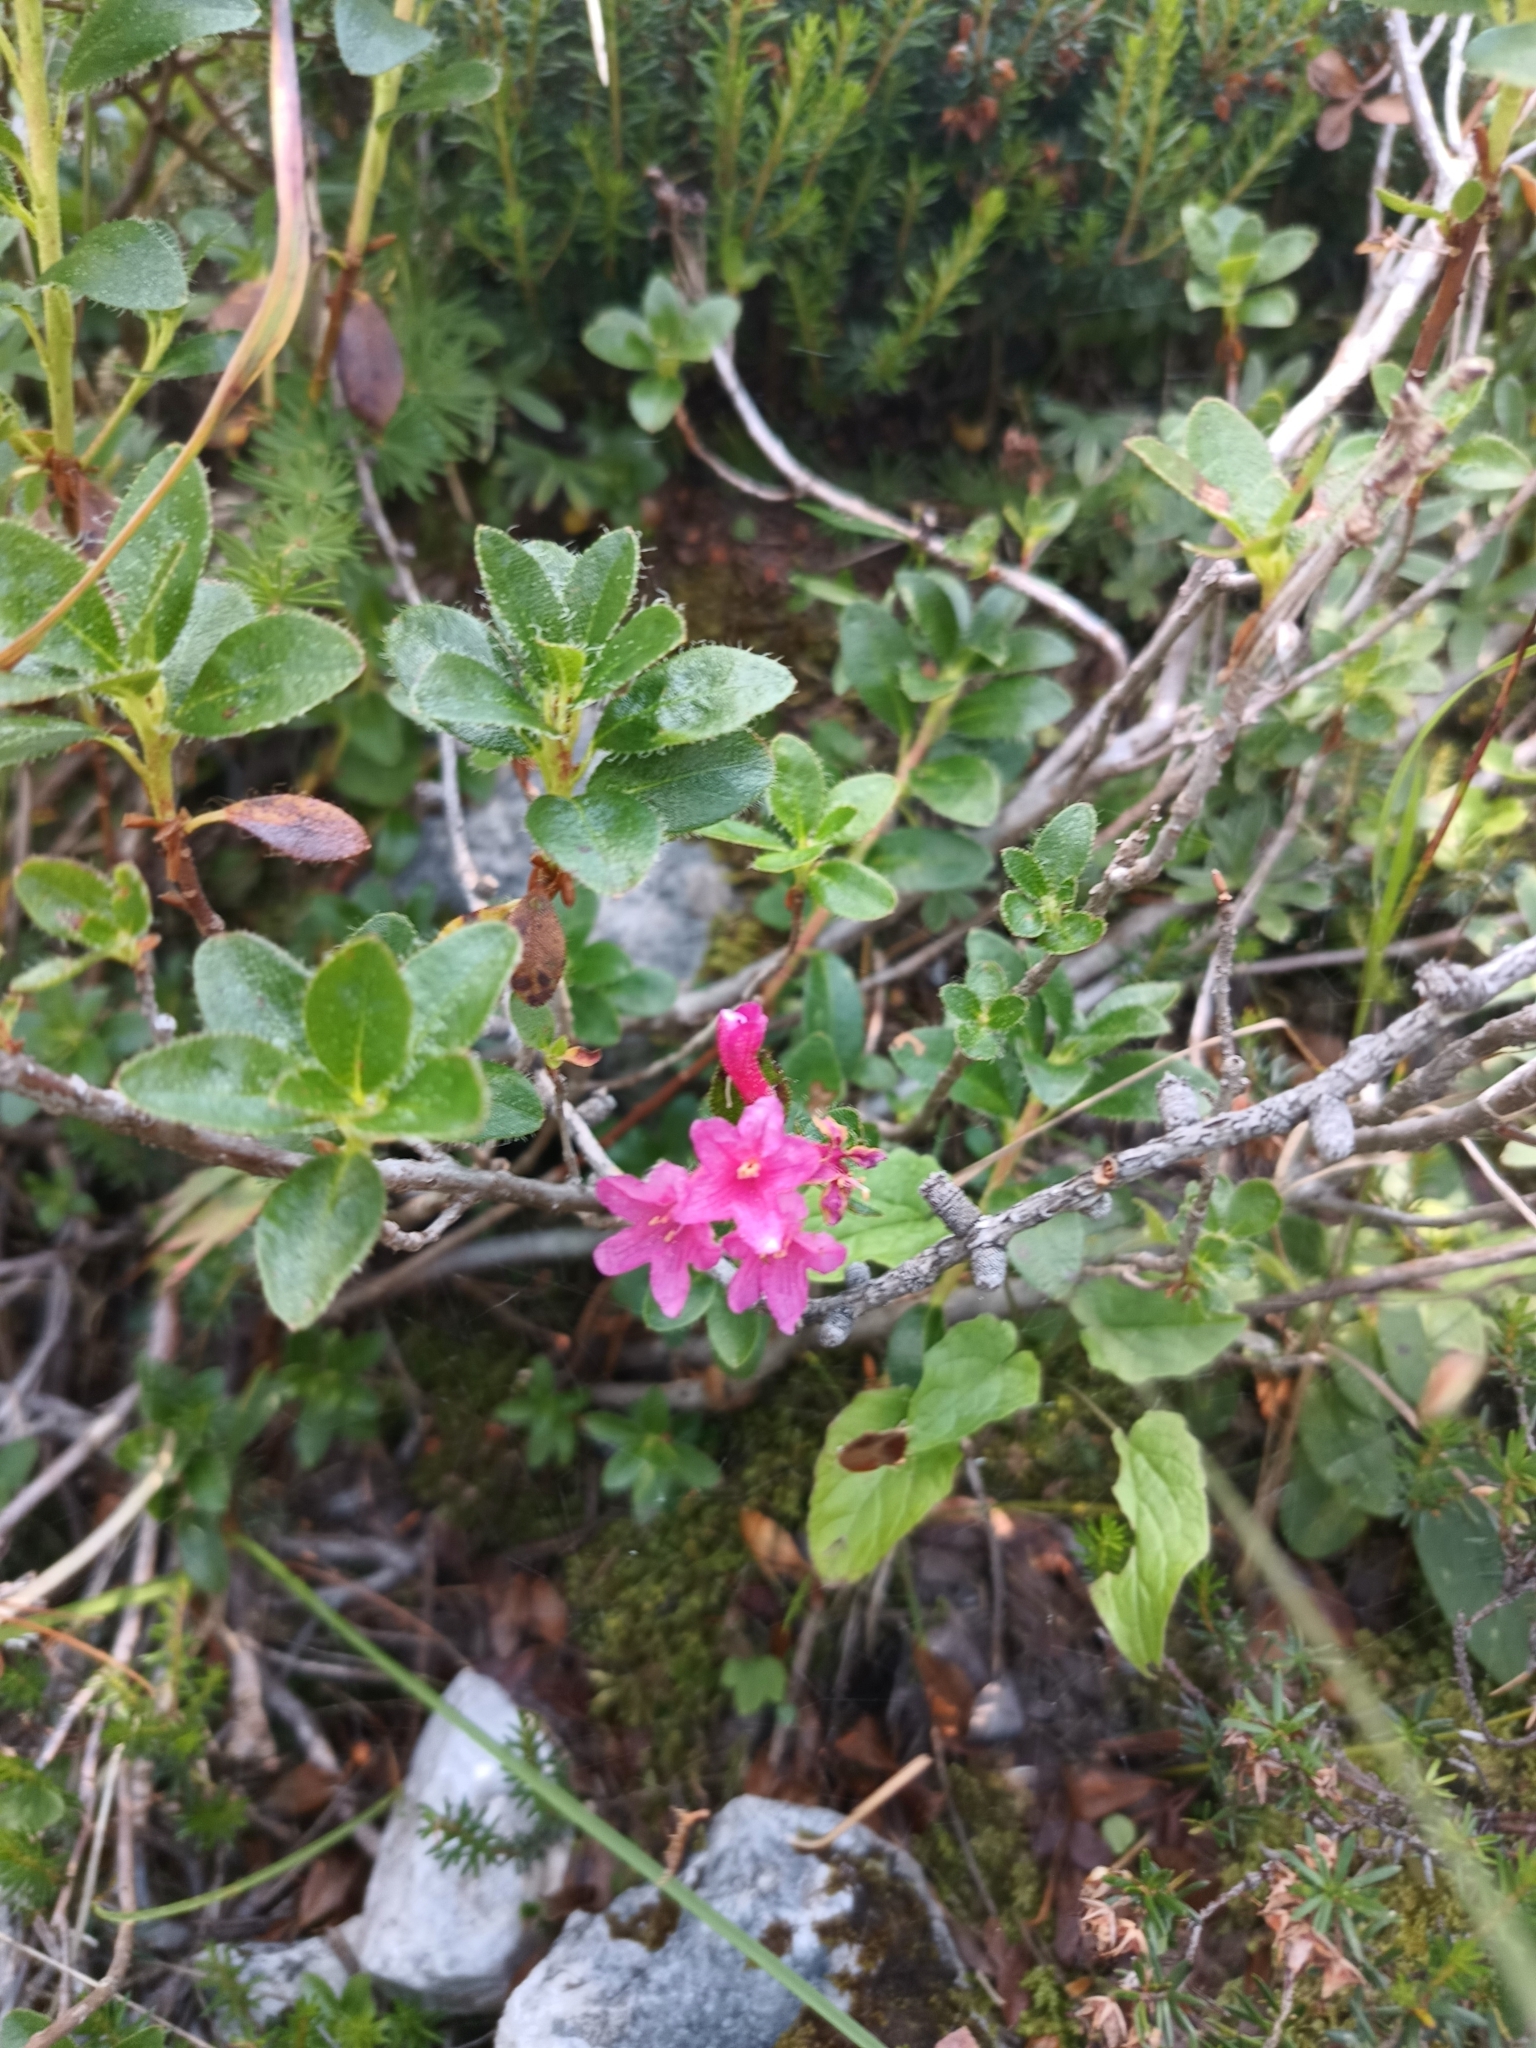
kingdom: Plantae
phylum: Tracheophyta
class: Magnoliopsida
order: Ericales
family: Ericaceae
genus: Rhododendron
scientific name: Rhododendron hirsutum
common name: Hairy alpenrose
